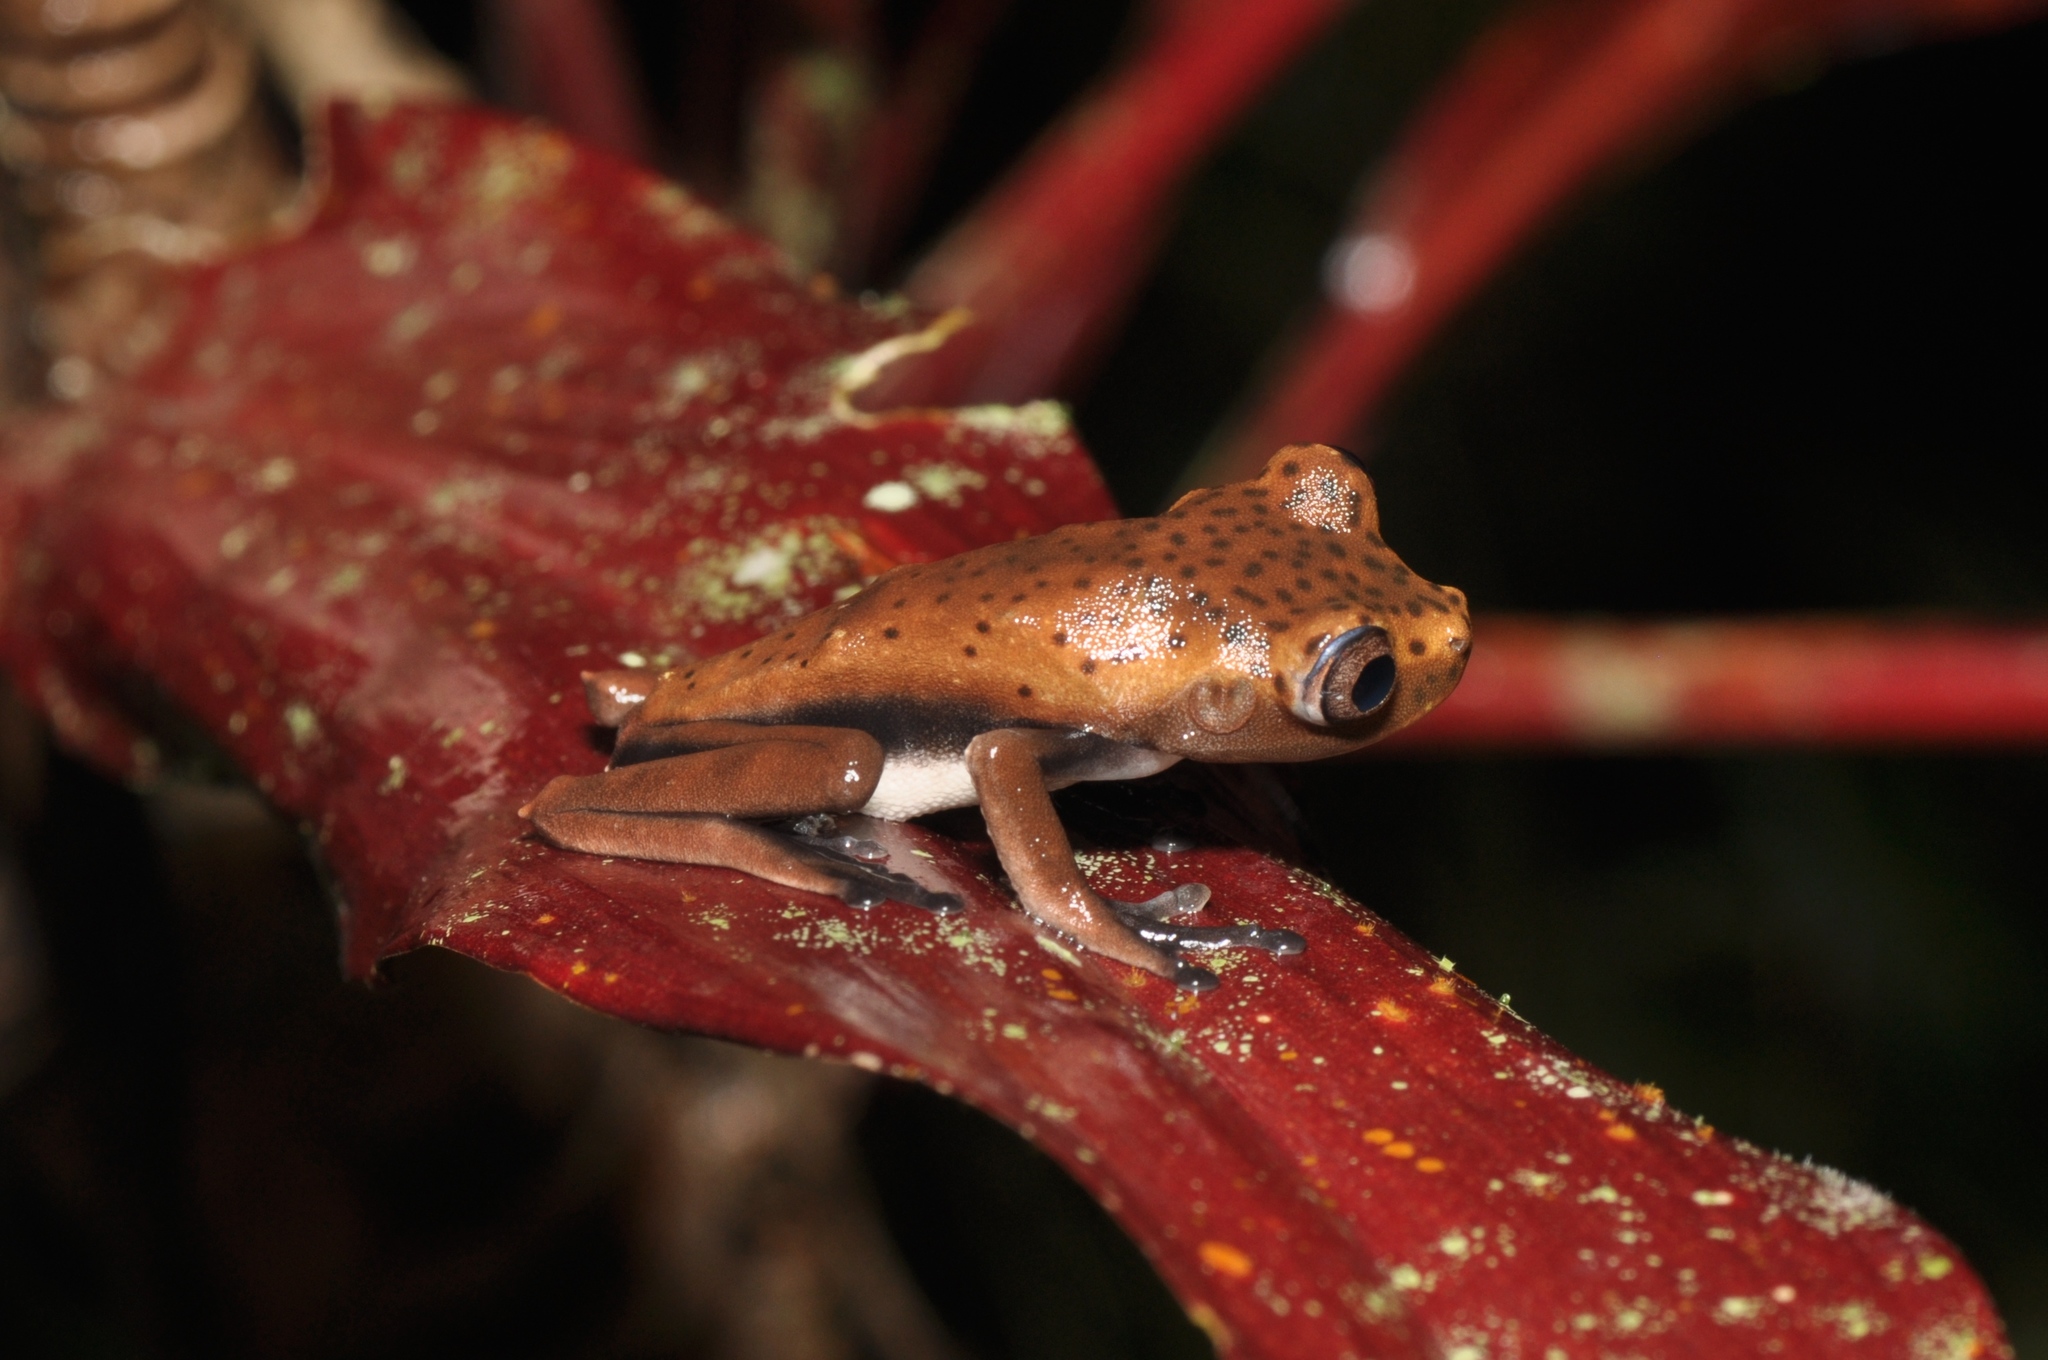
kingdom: Animalia
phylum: Chordata
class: Amphibia
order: Anura
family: Hylidae
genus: Boana
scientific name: Boana appendiculata
